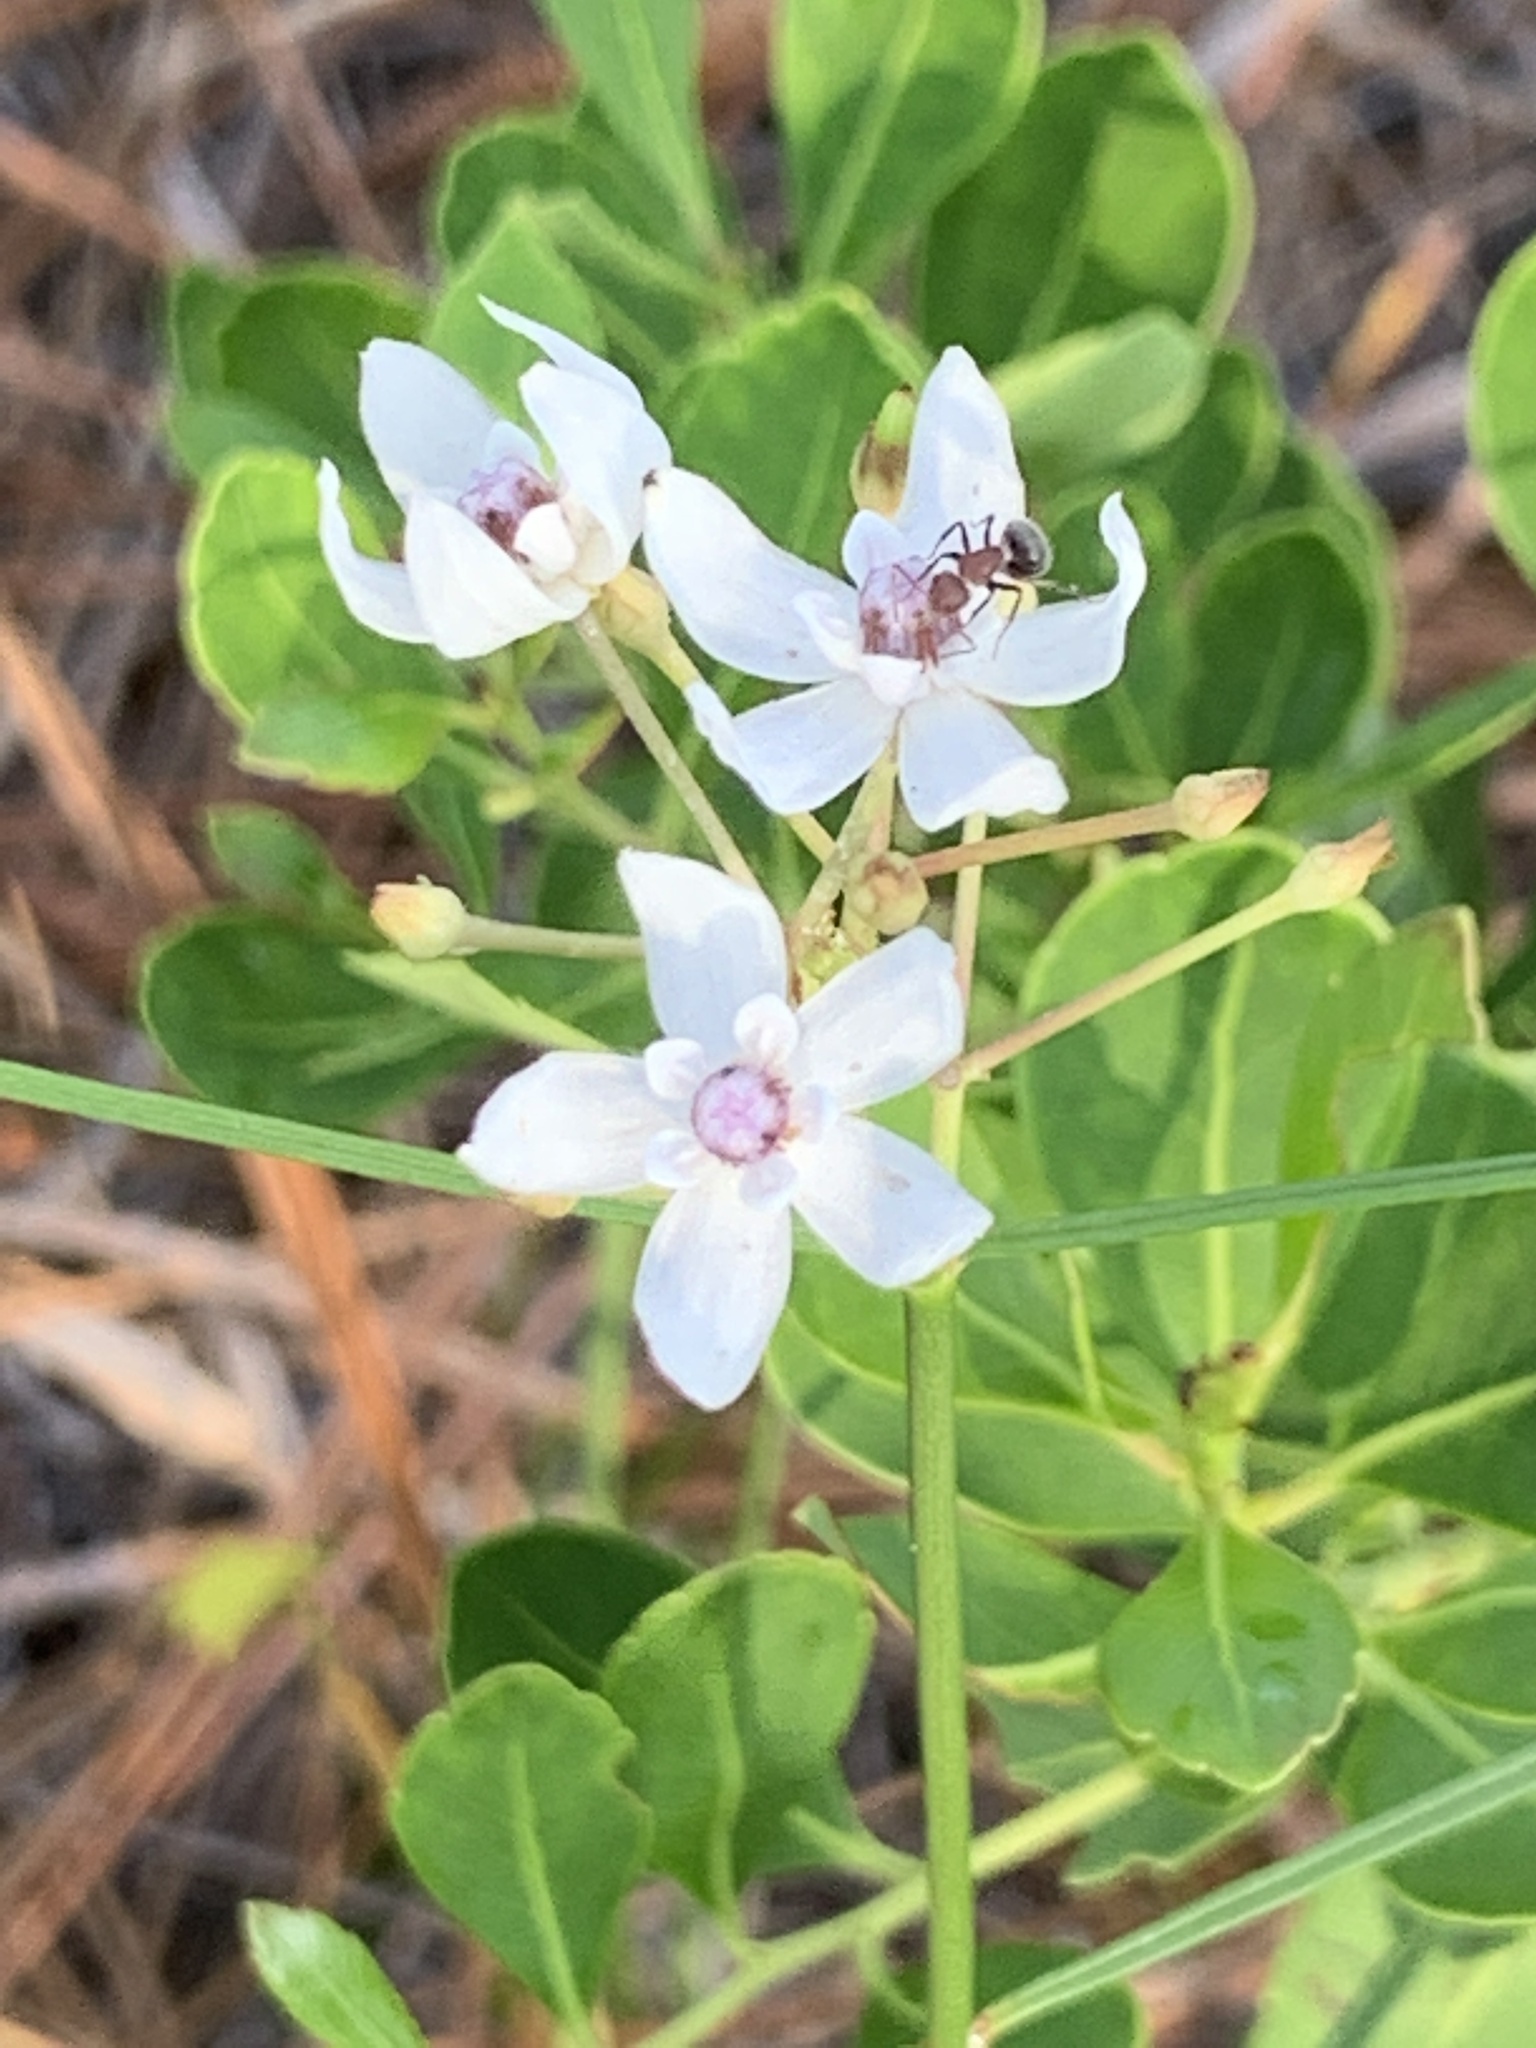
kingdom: Plantae
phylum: Tracheophyta
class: Magnoliopsida
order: Gentianales
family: Apocynaceae
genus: Asclepias
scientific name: Asclepias feayi
